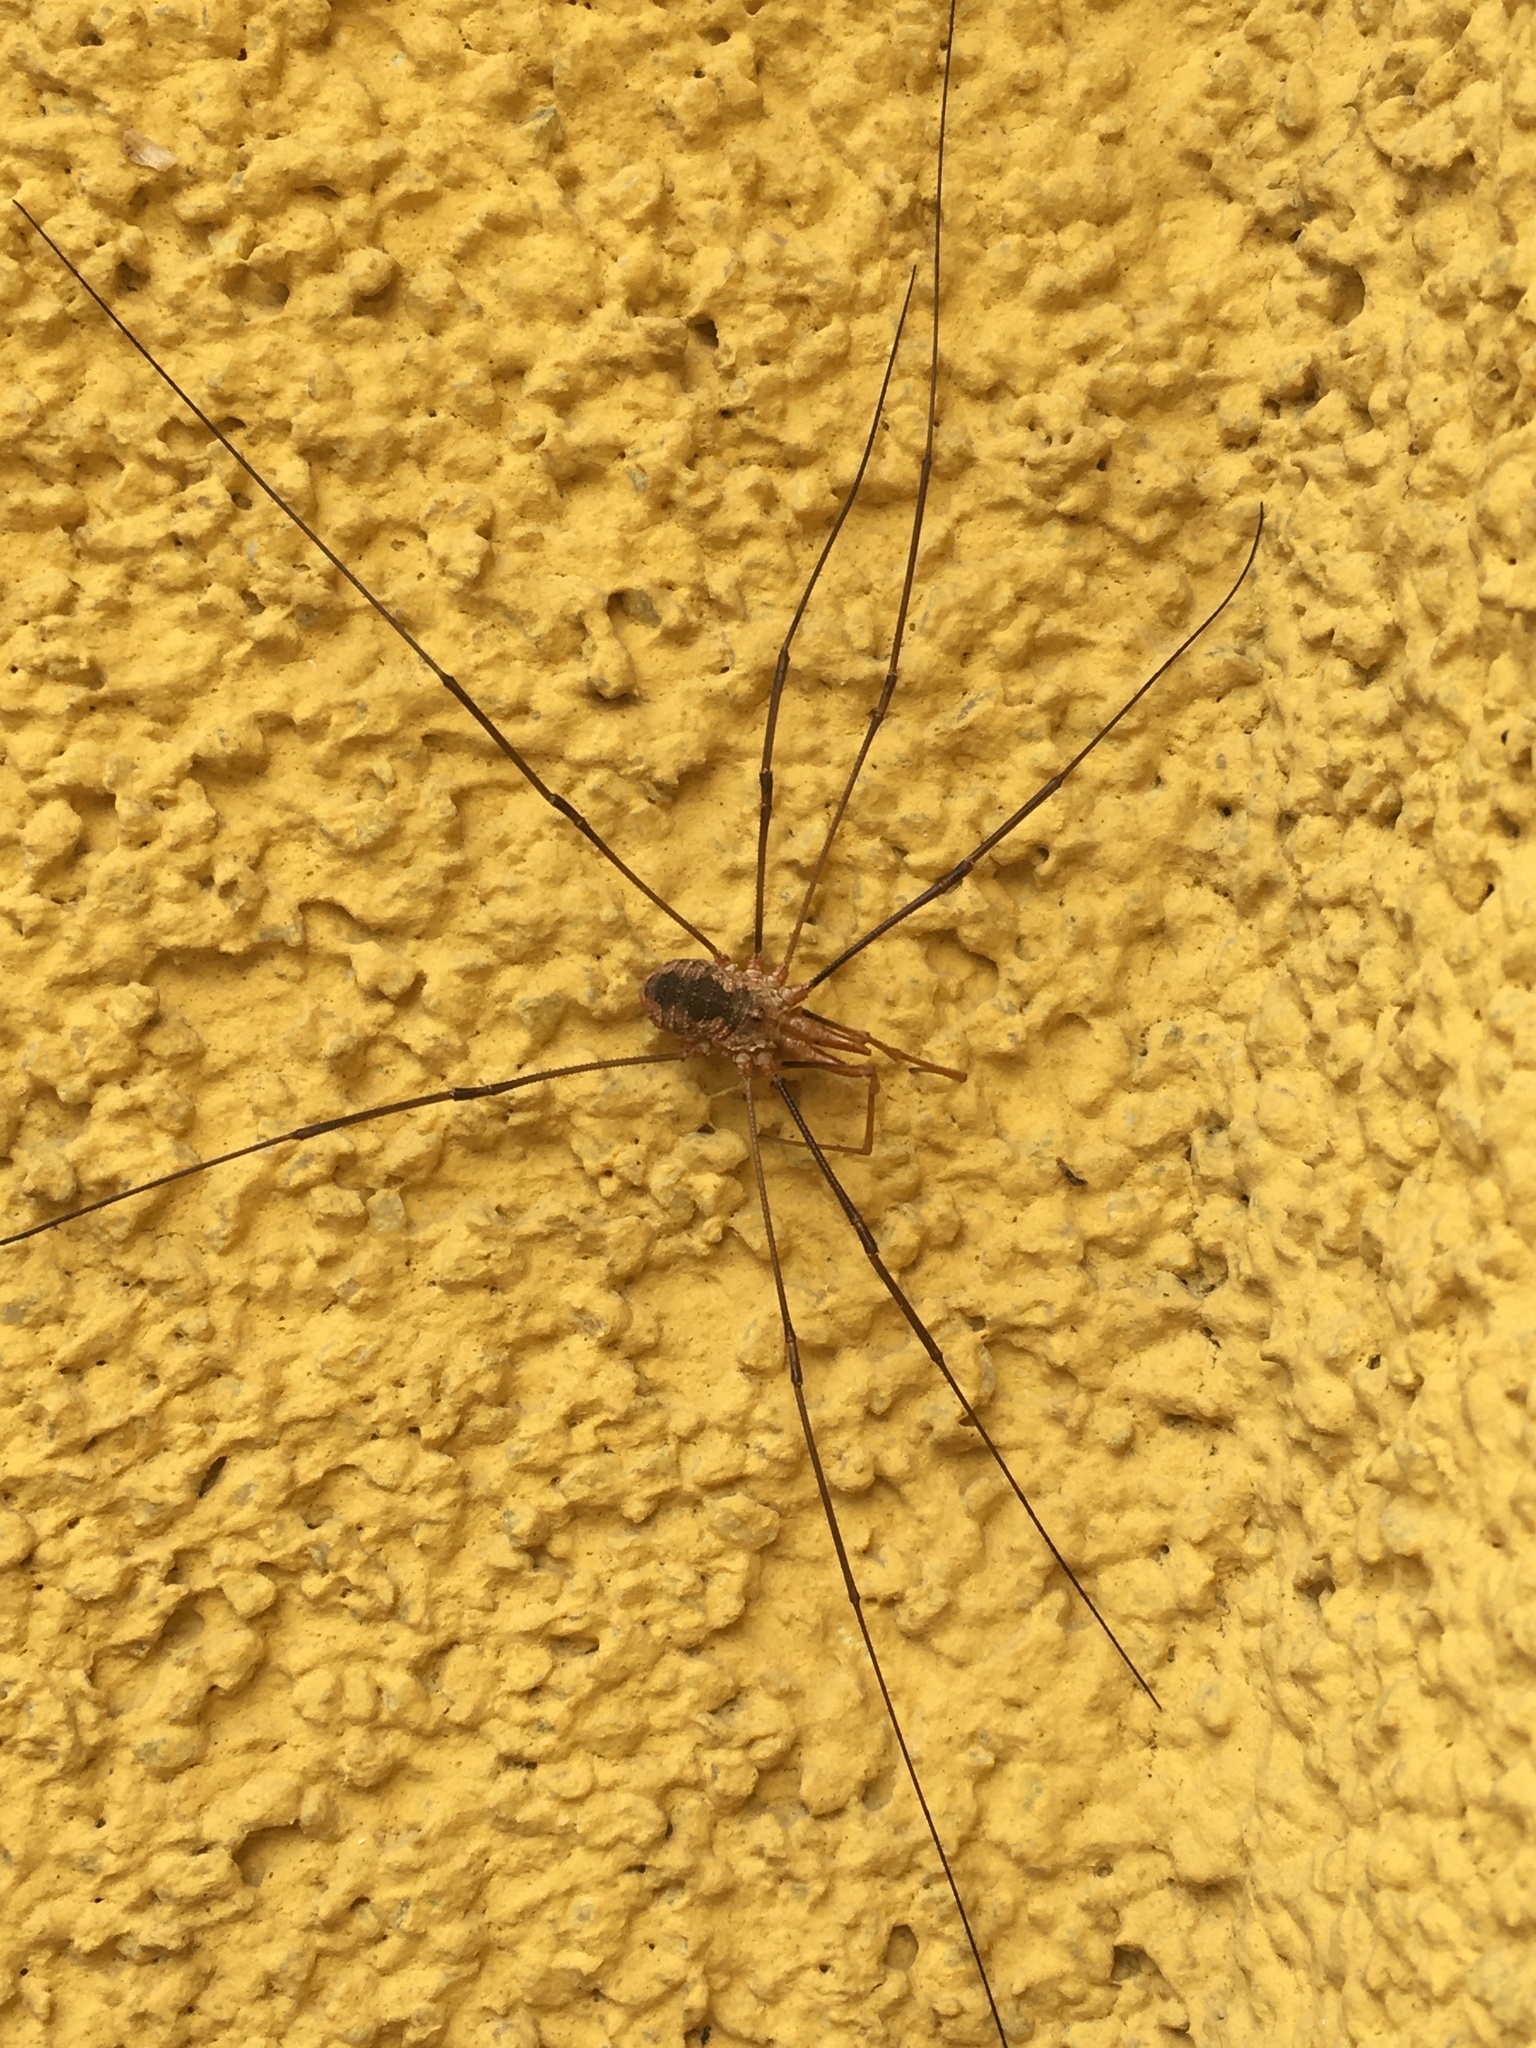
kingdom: Animalia
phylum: Arthropoda
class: Arachnida
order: Opiliones
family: Phalangiidae
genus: Phalangium
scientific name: Phalangium opilio
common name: Daddy longleg
